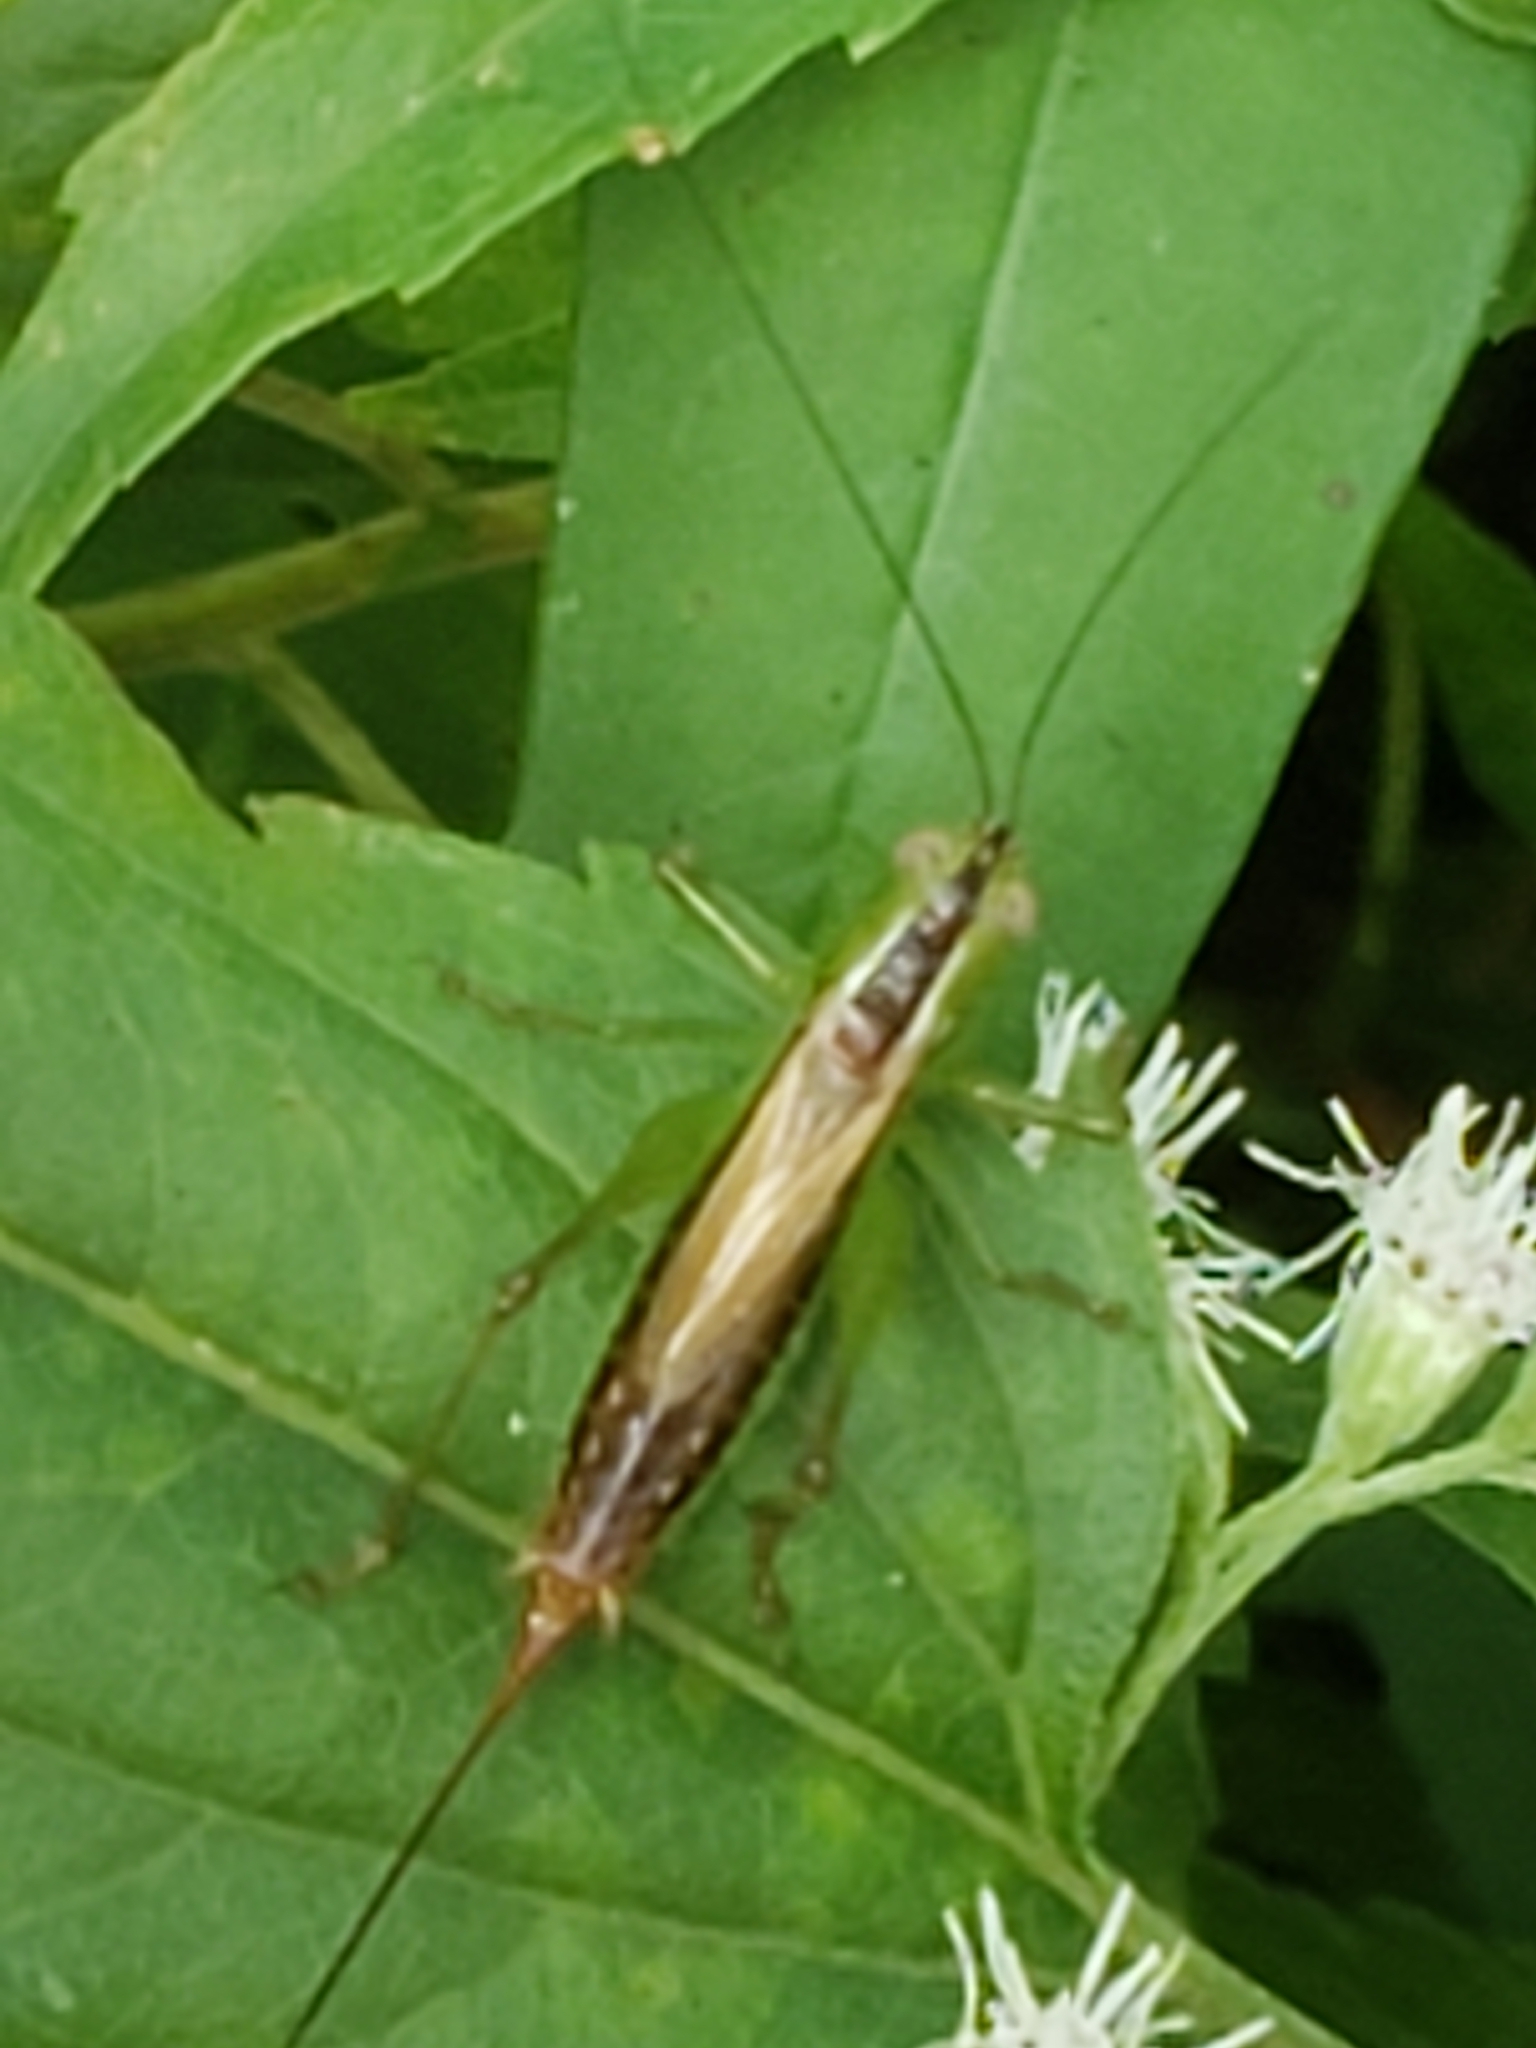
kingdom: Animalia
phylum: Arthropoda
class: Insecta
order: Orthoptera
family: Tettigoniidae
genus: Conocephalus
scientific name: Conocephalus brevipennis
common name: Short-winged meadow katydid
